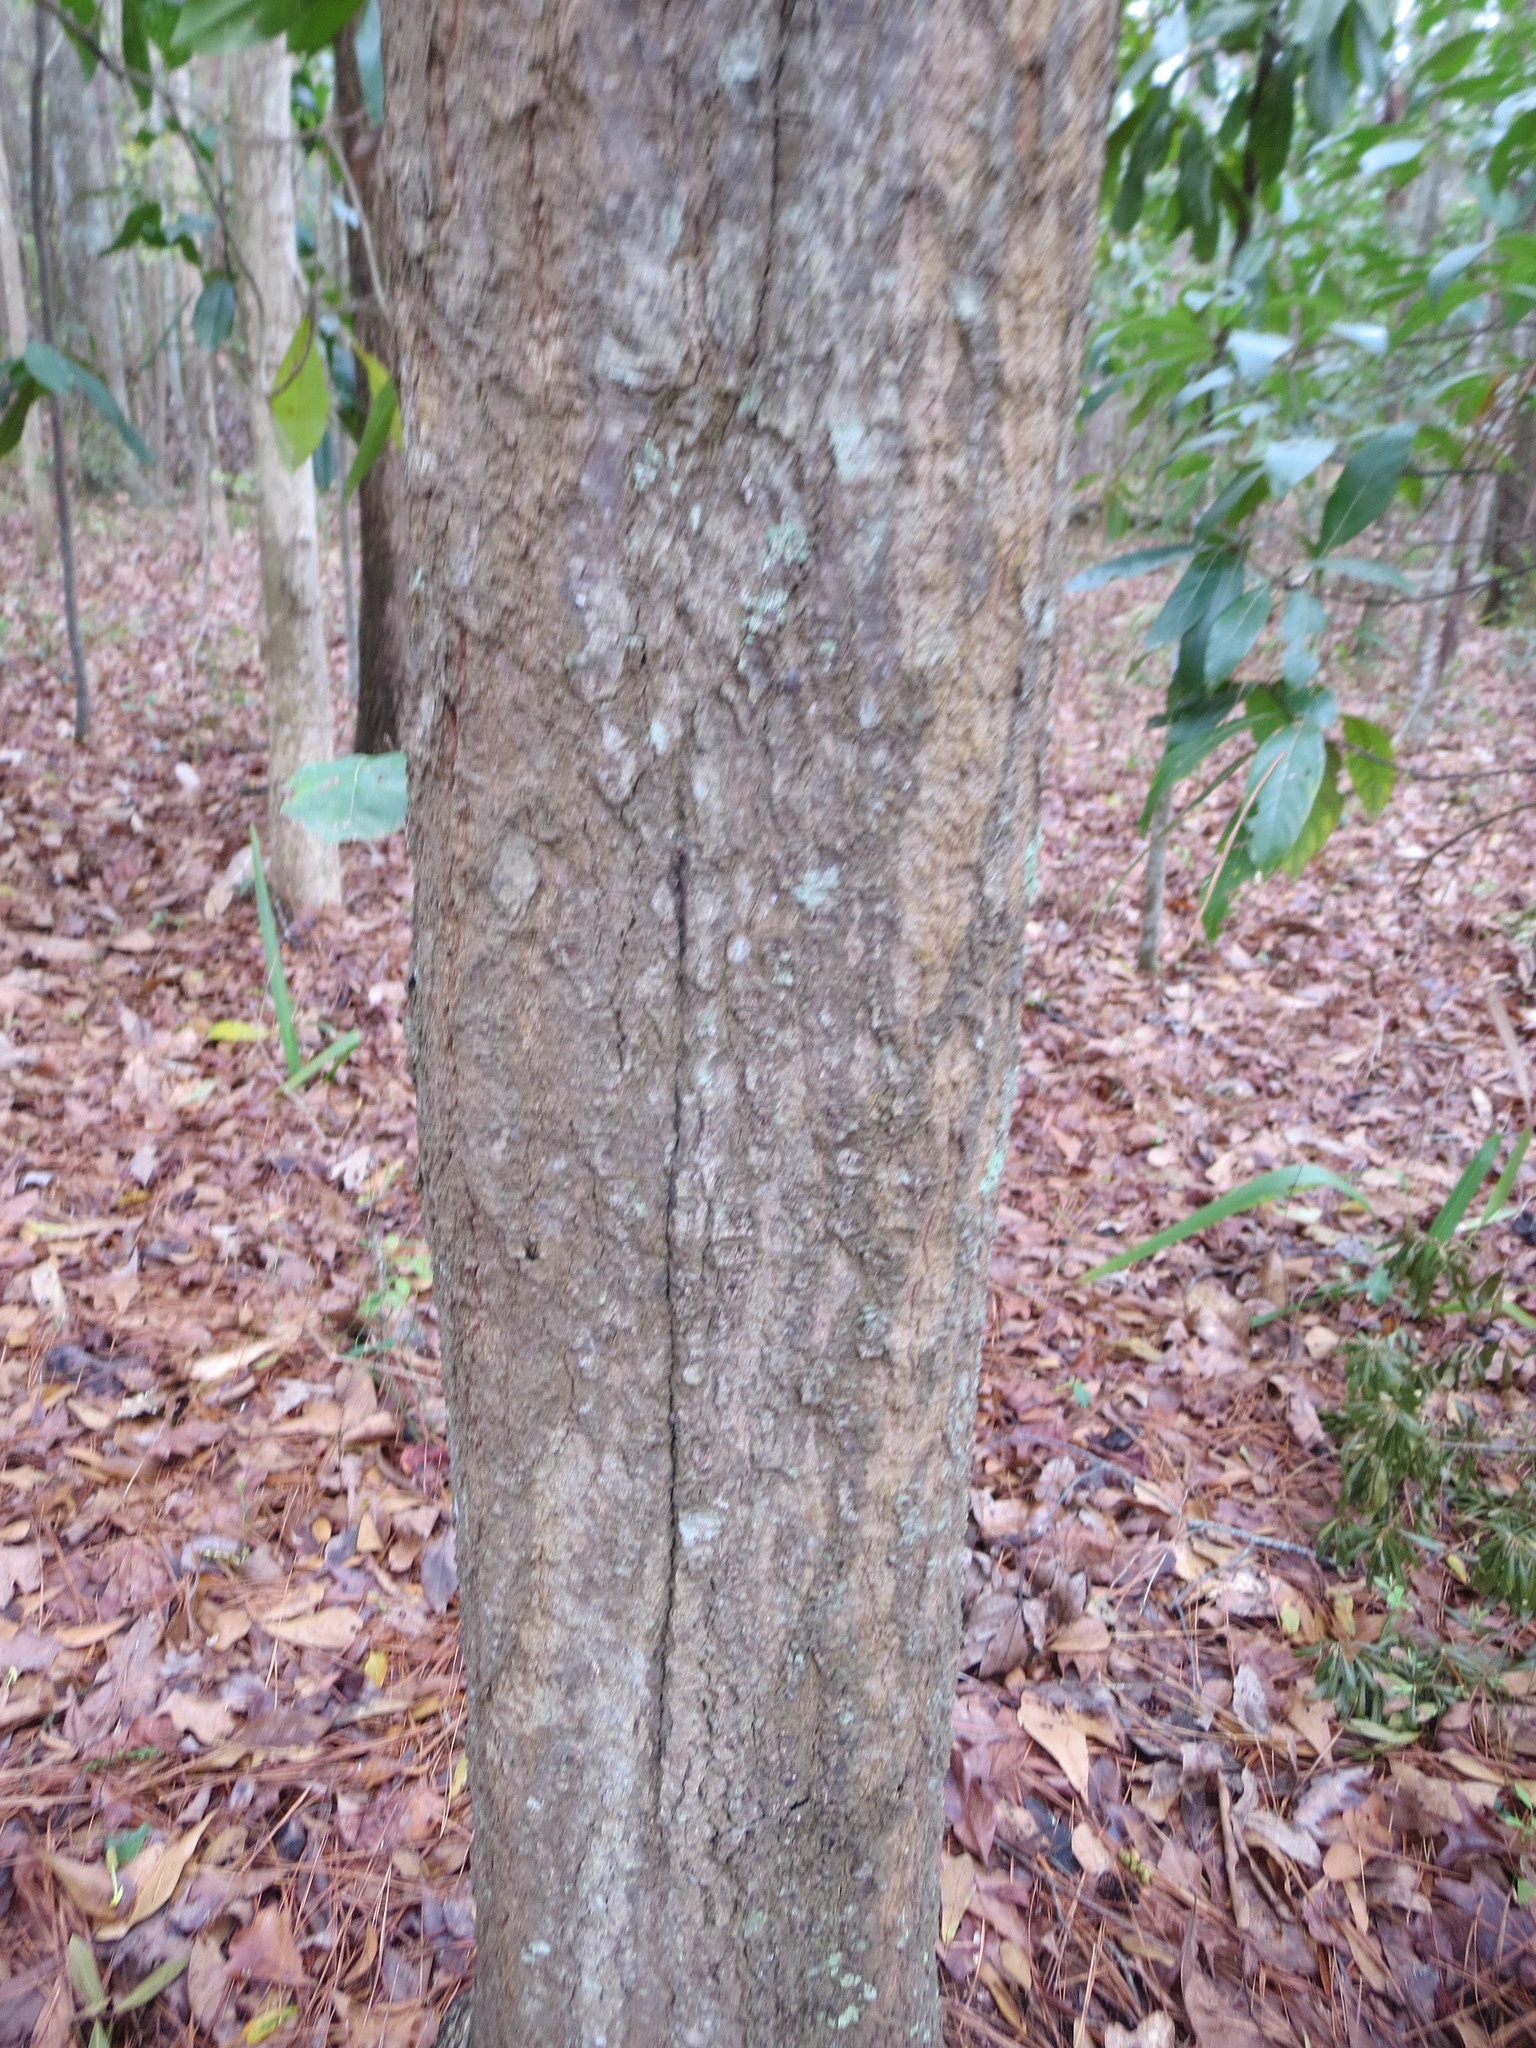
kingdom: Plantae
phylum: Tracheophyta
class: Magnoliopsida
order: Fagales
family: Fagaceae
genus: Quercus
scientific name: Quercus nigra
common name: Water oak
